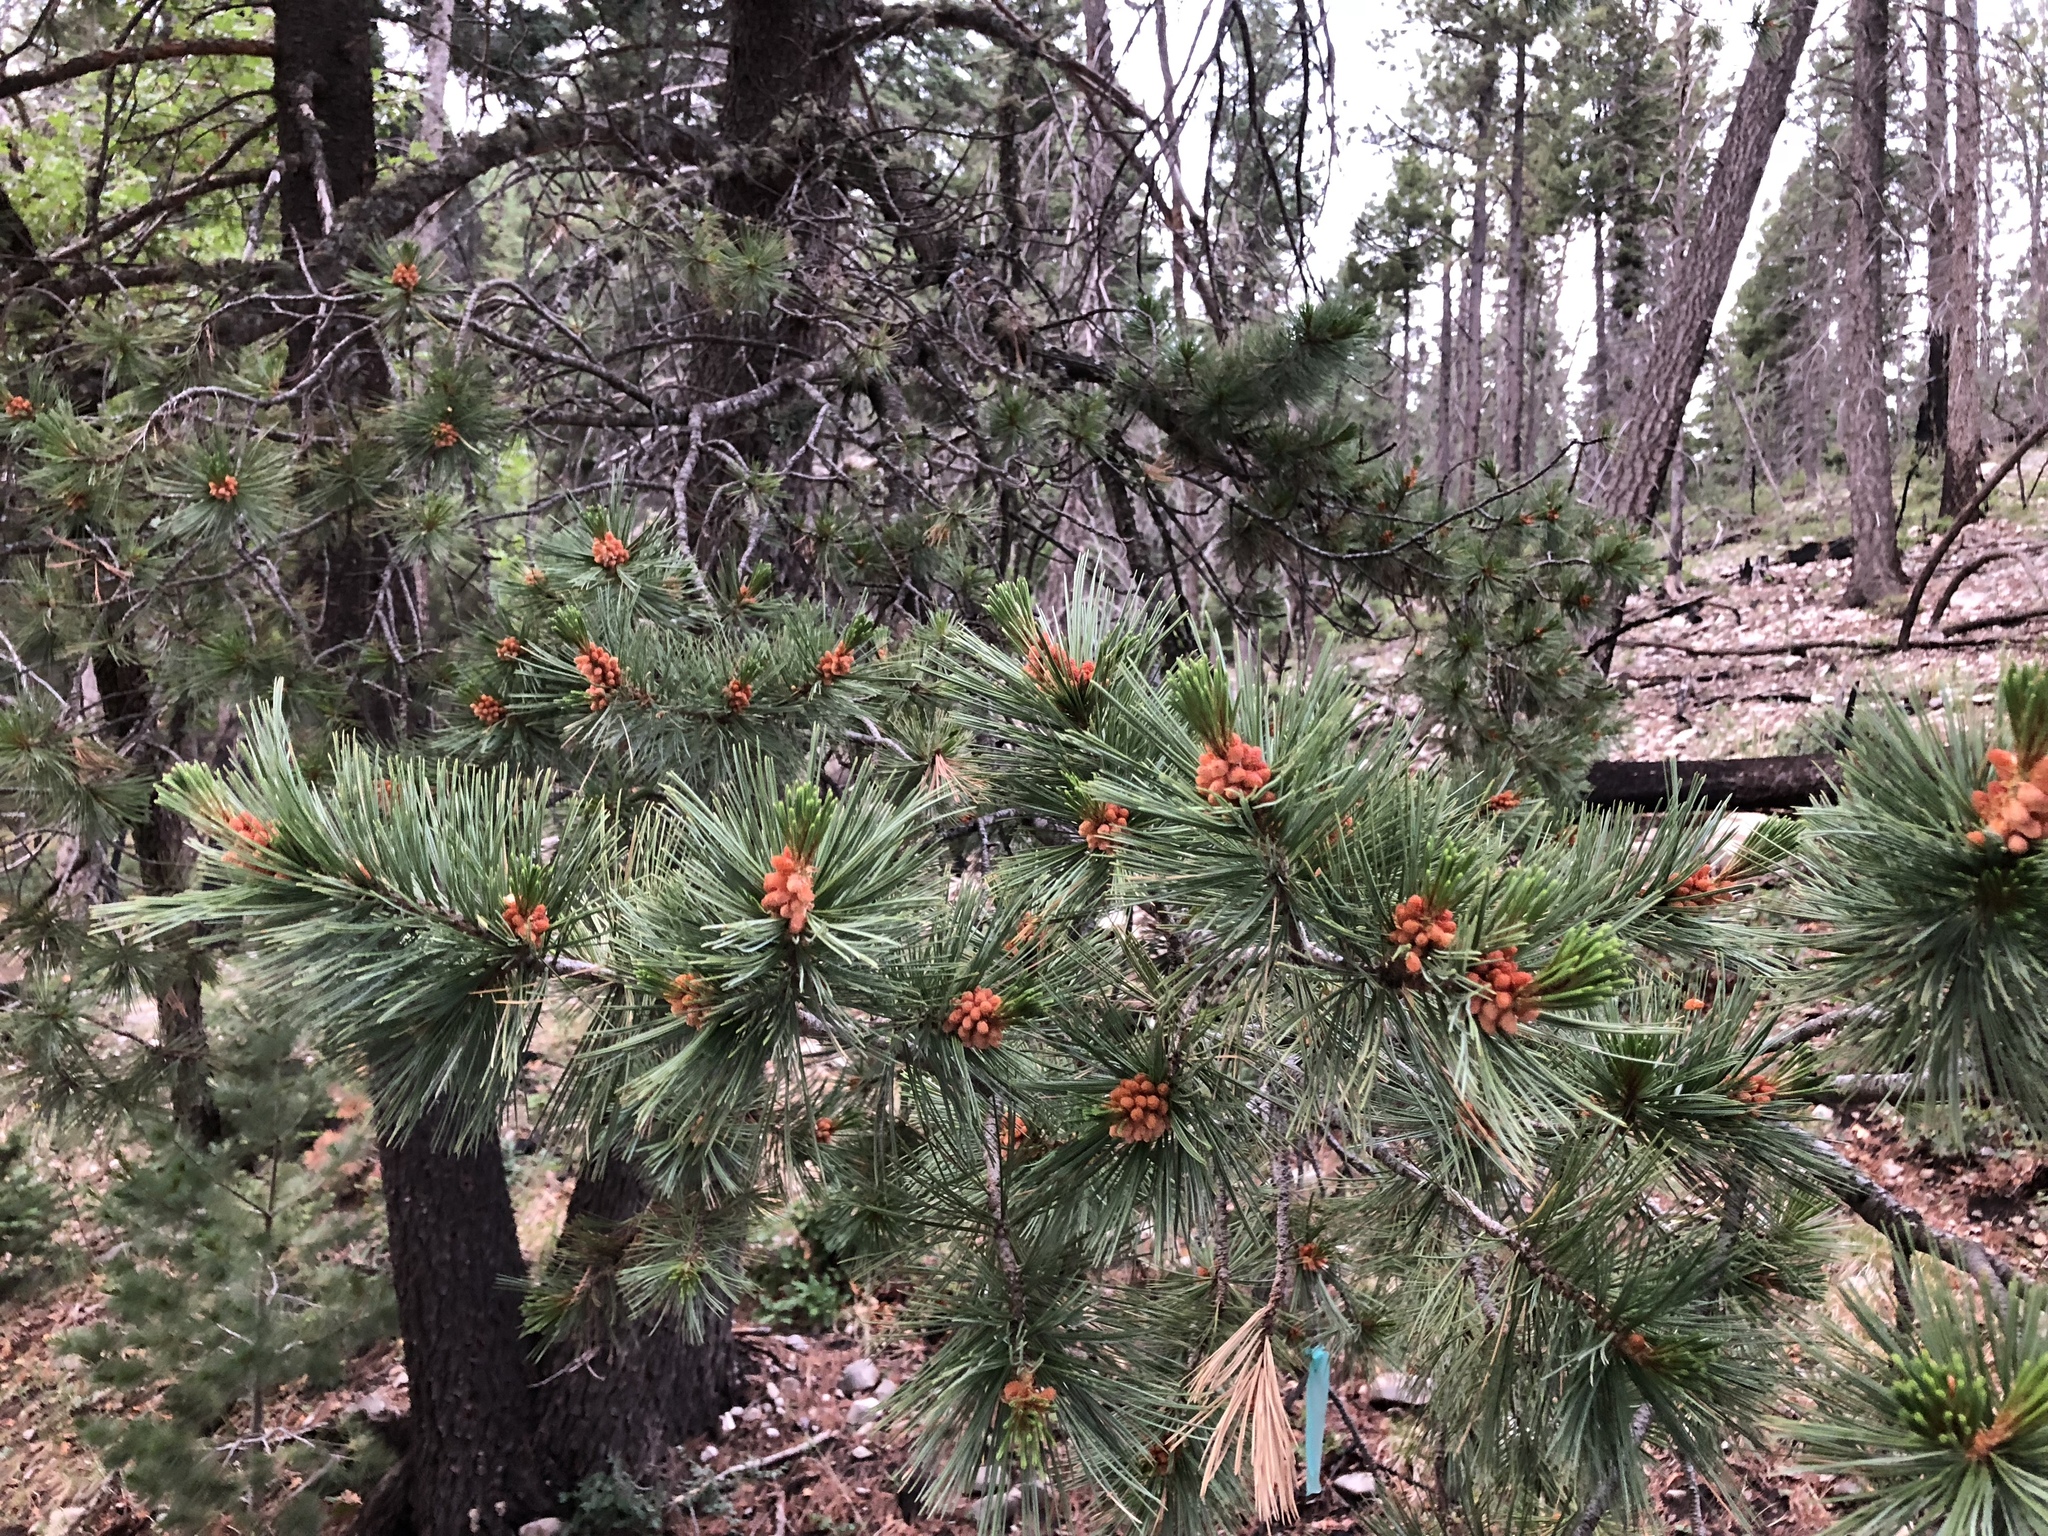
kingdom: Plantae
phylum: Tracheophyta
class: Pinopsida
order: Pinales
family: Pinaceae
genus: Pinus
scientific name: Pinus strobiformis
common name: Southwestern white pine
